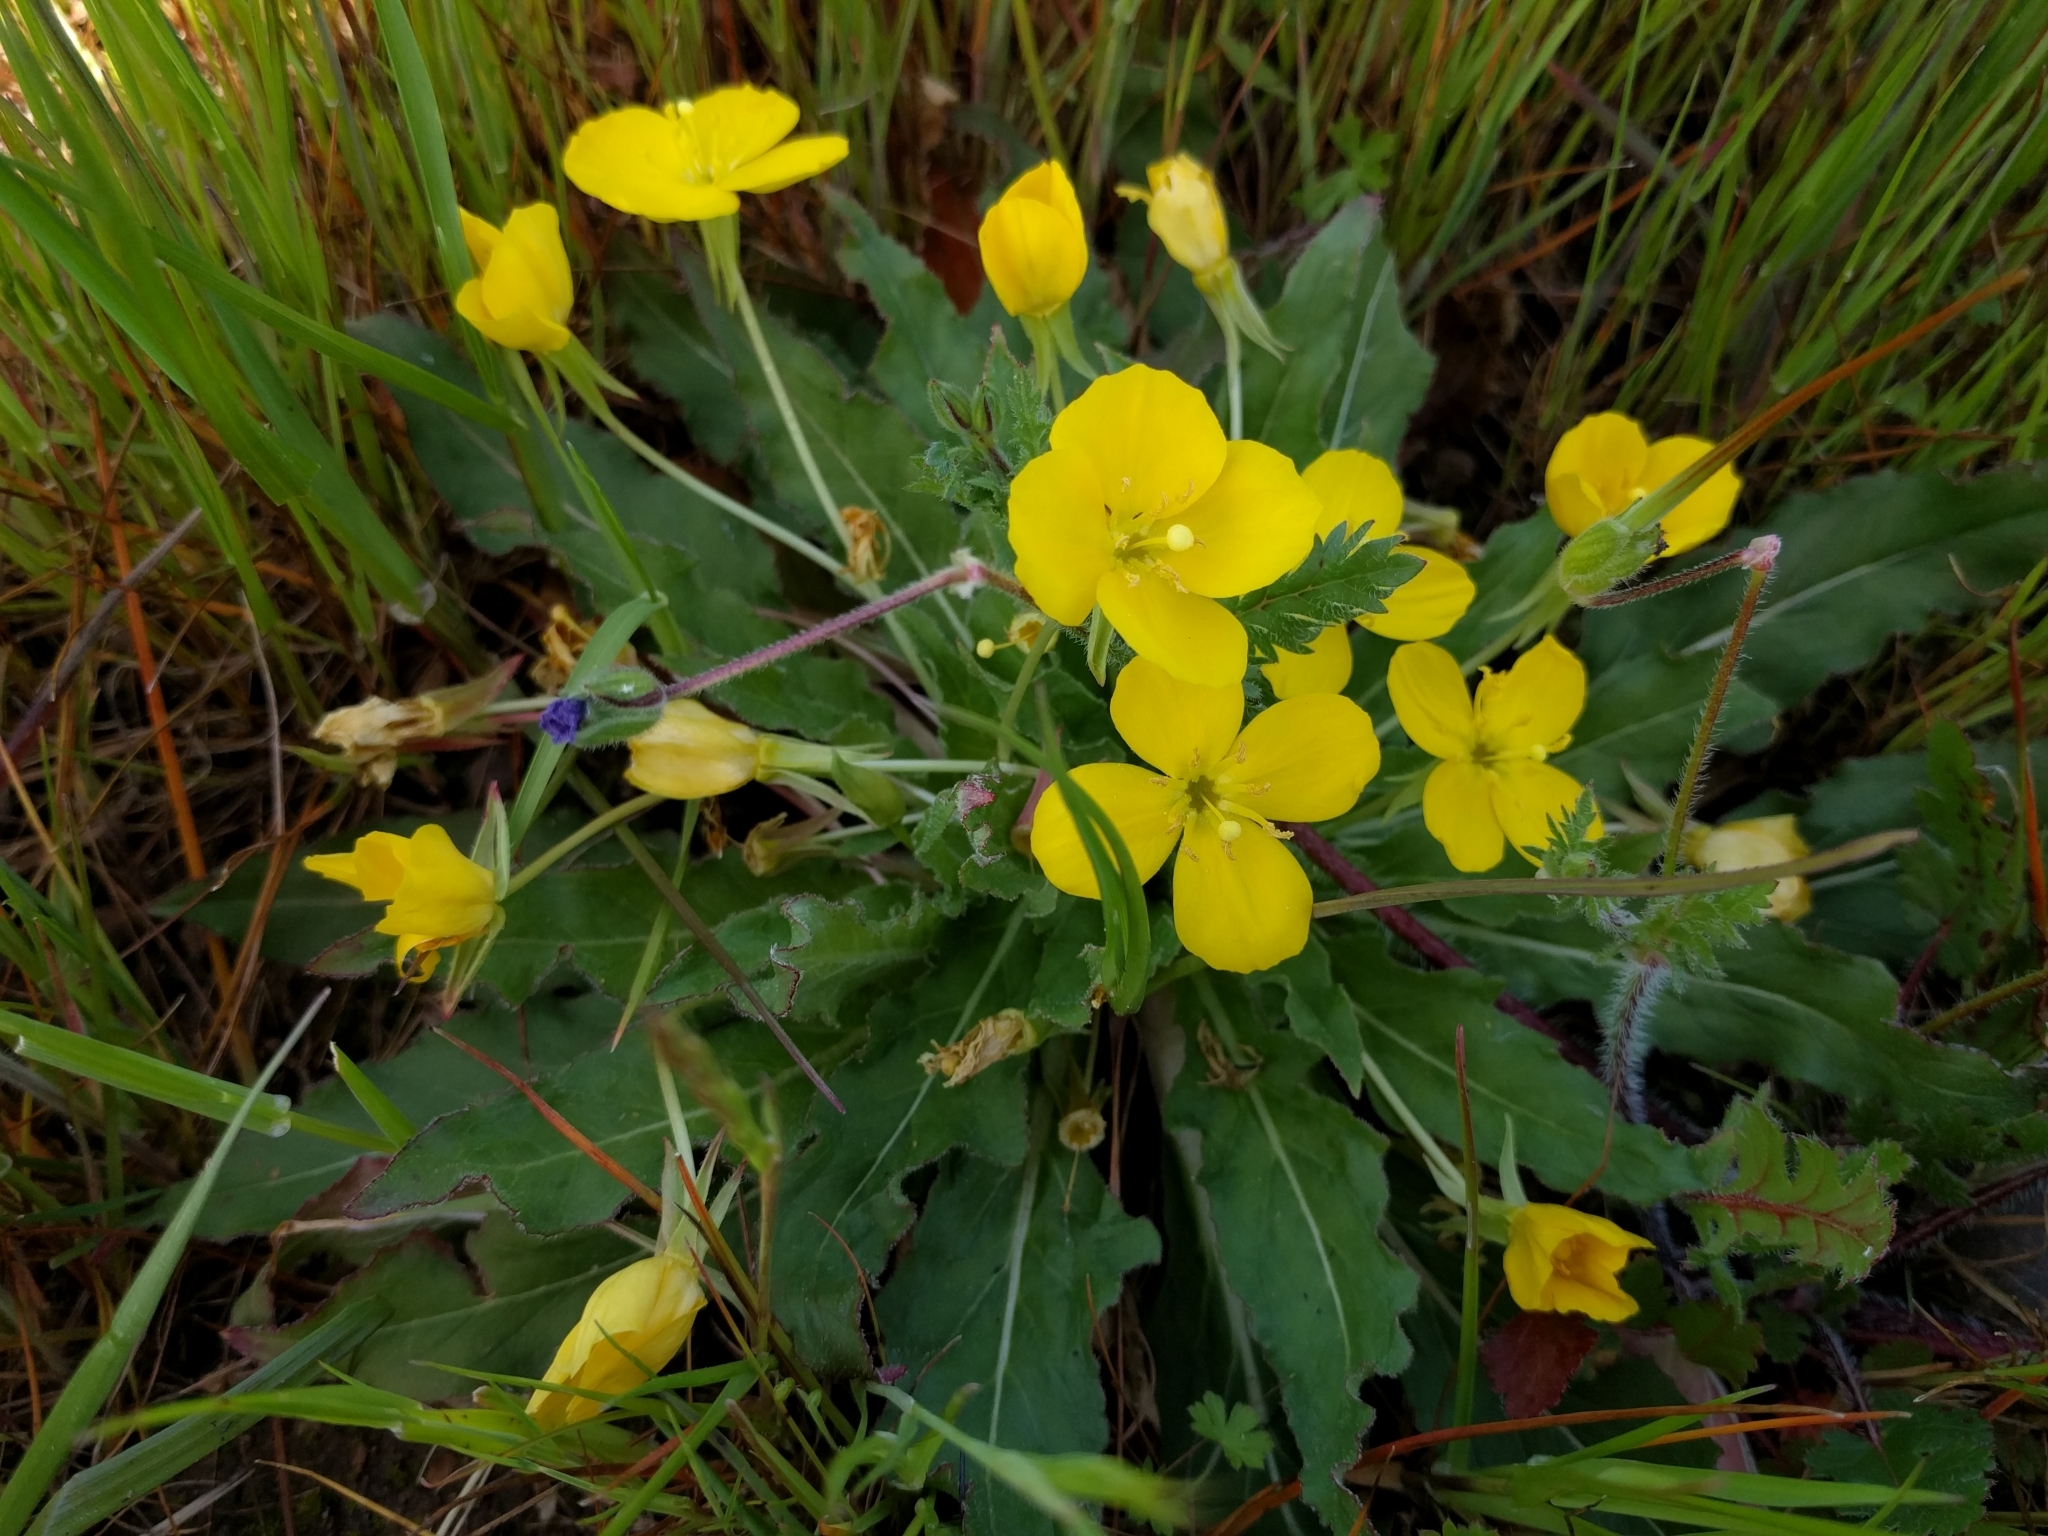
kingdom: Plantae
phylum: Tracheophyta
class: Magnoliopsida
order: Myrtales
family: Onagraceae
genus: Taraxia
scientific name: Taraxia ovata
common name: Goldeneggs
